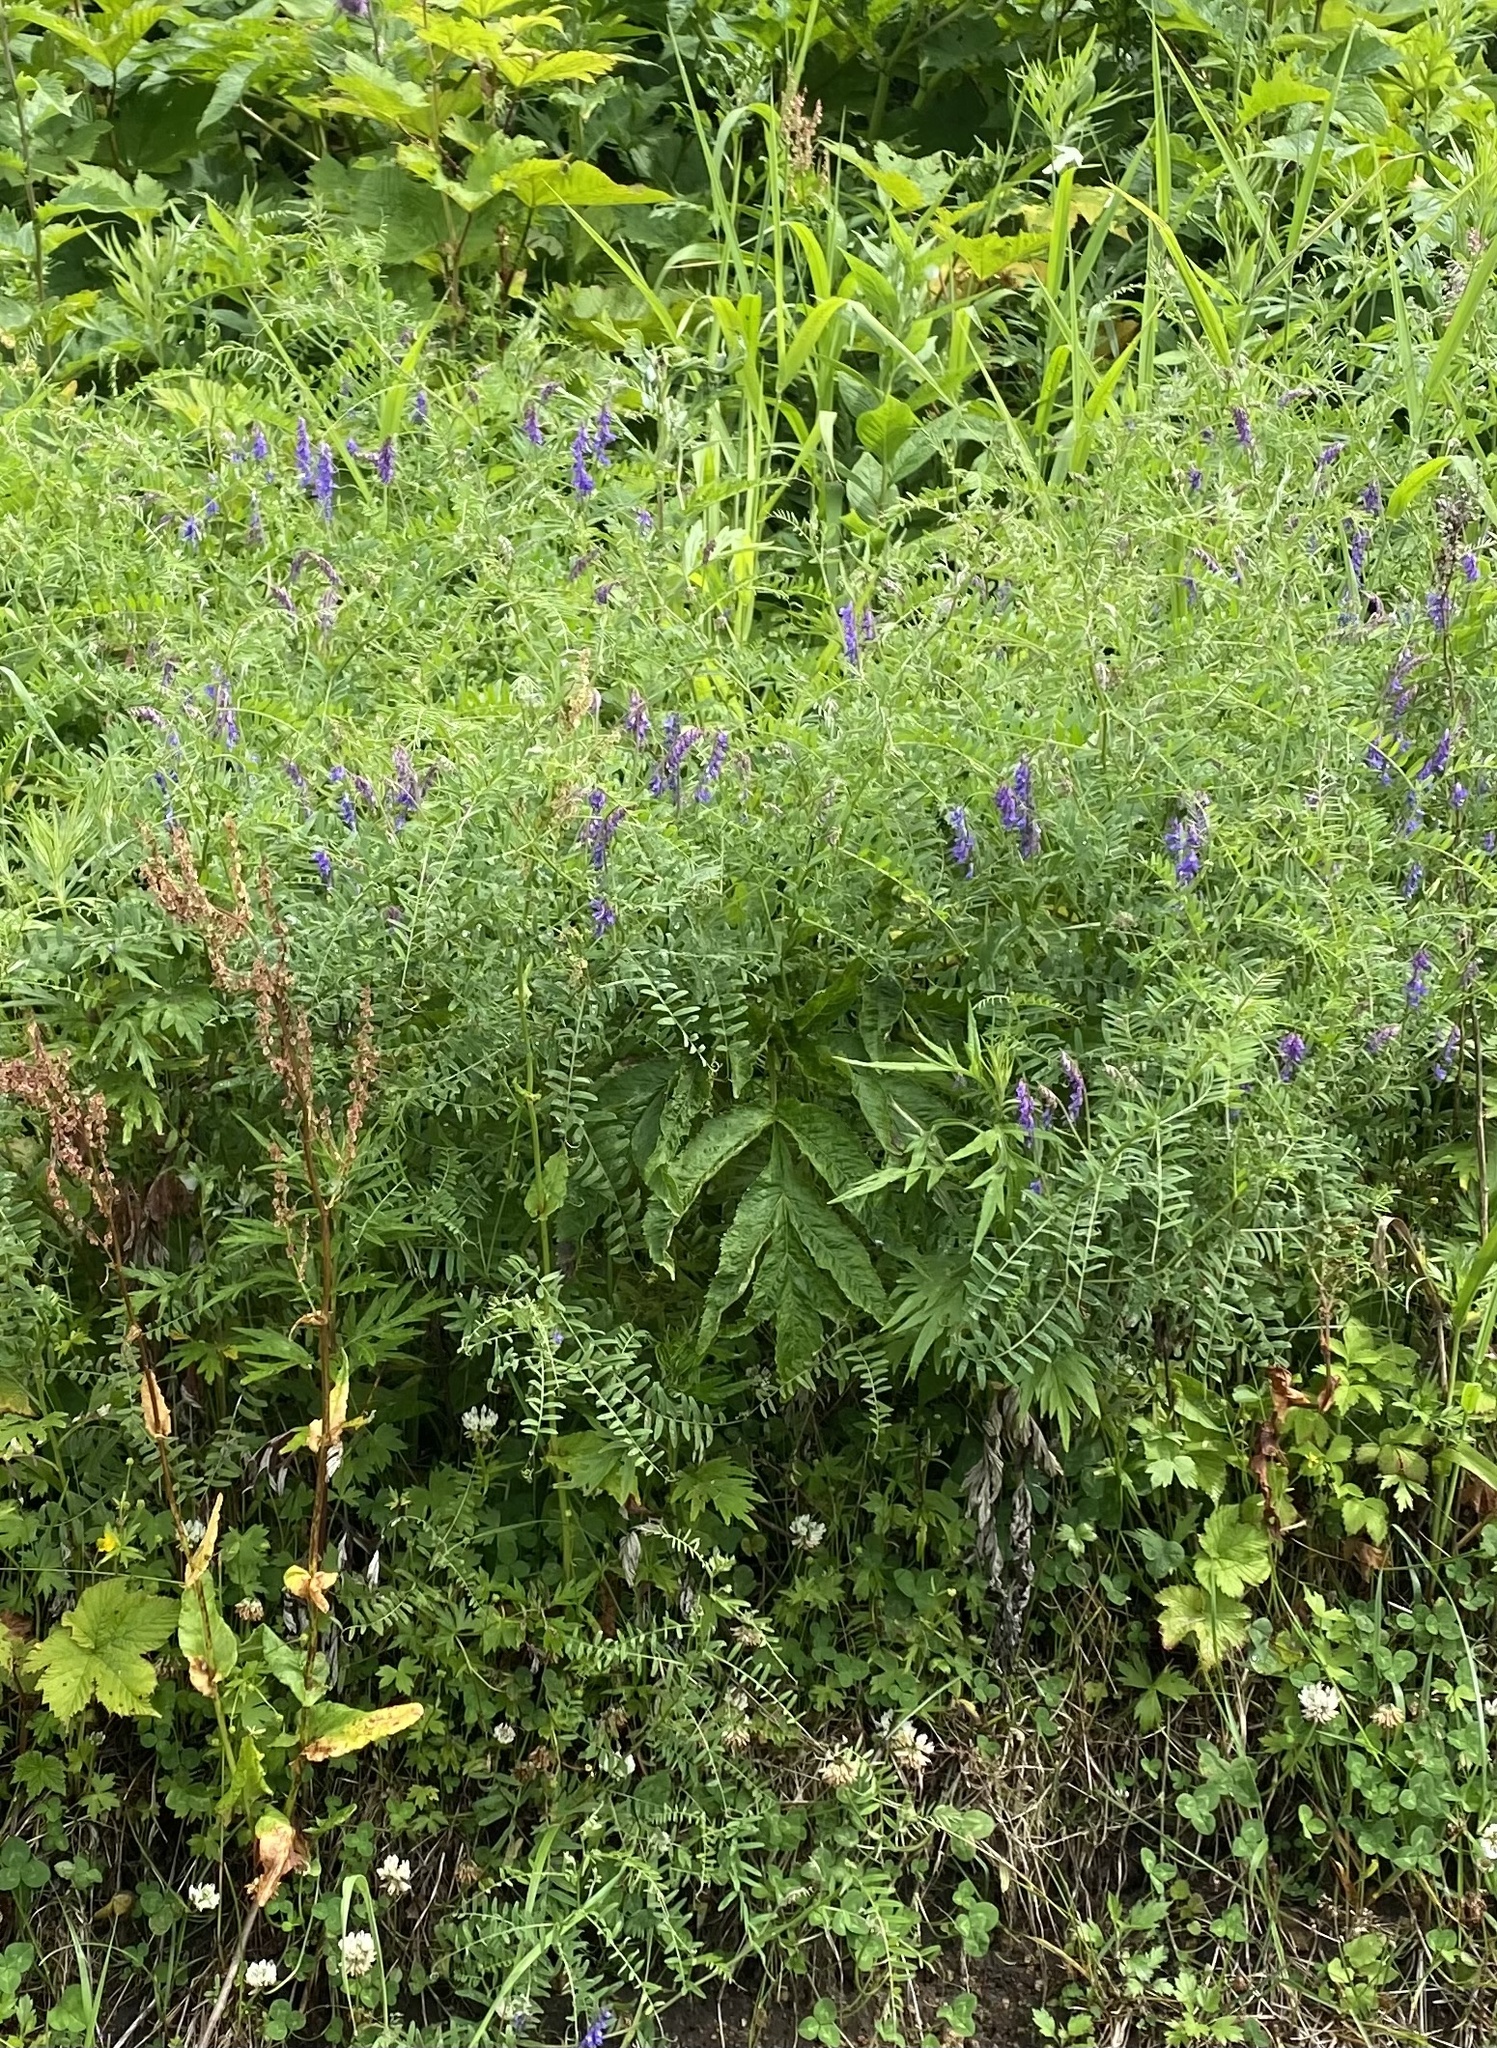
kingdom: Plantae
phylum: Tracheophyta
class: Magnoliopsida
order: Fabales
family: Fabaceae
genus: Vicia
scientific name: Vicia cracca
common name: Bird vetch
